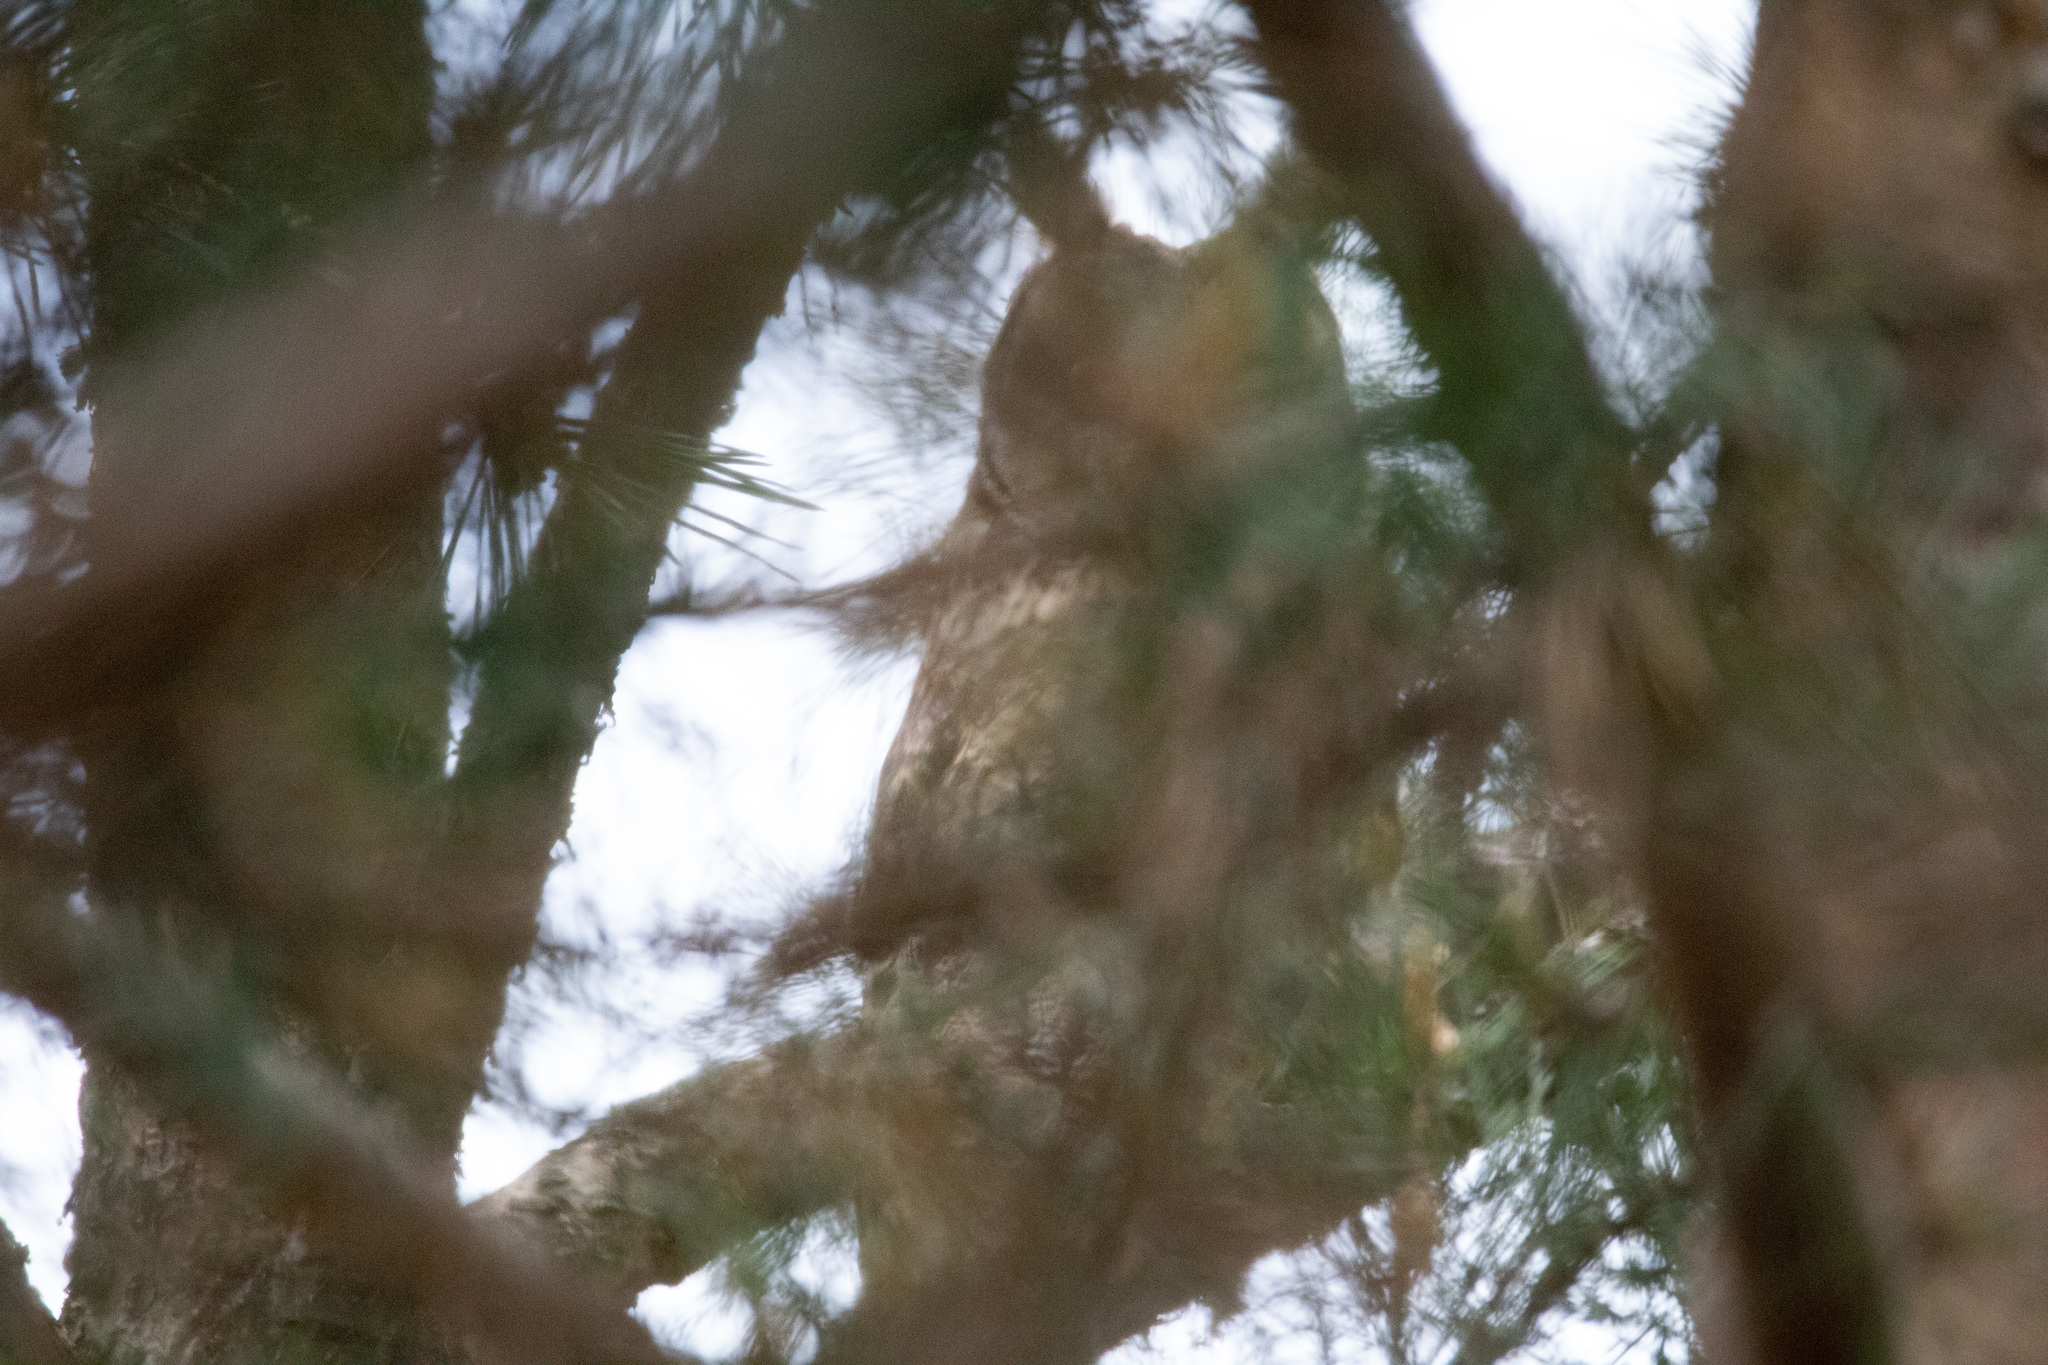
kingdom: Animalia
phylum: Chordata
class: Aves
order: Strigiformes
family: Strigidae
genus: Asio
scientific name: Asio otus
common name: Long-eared owl
